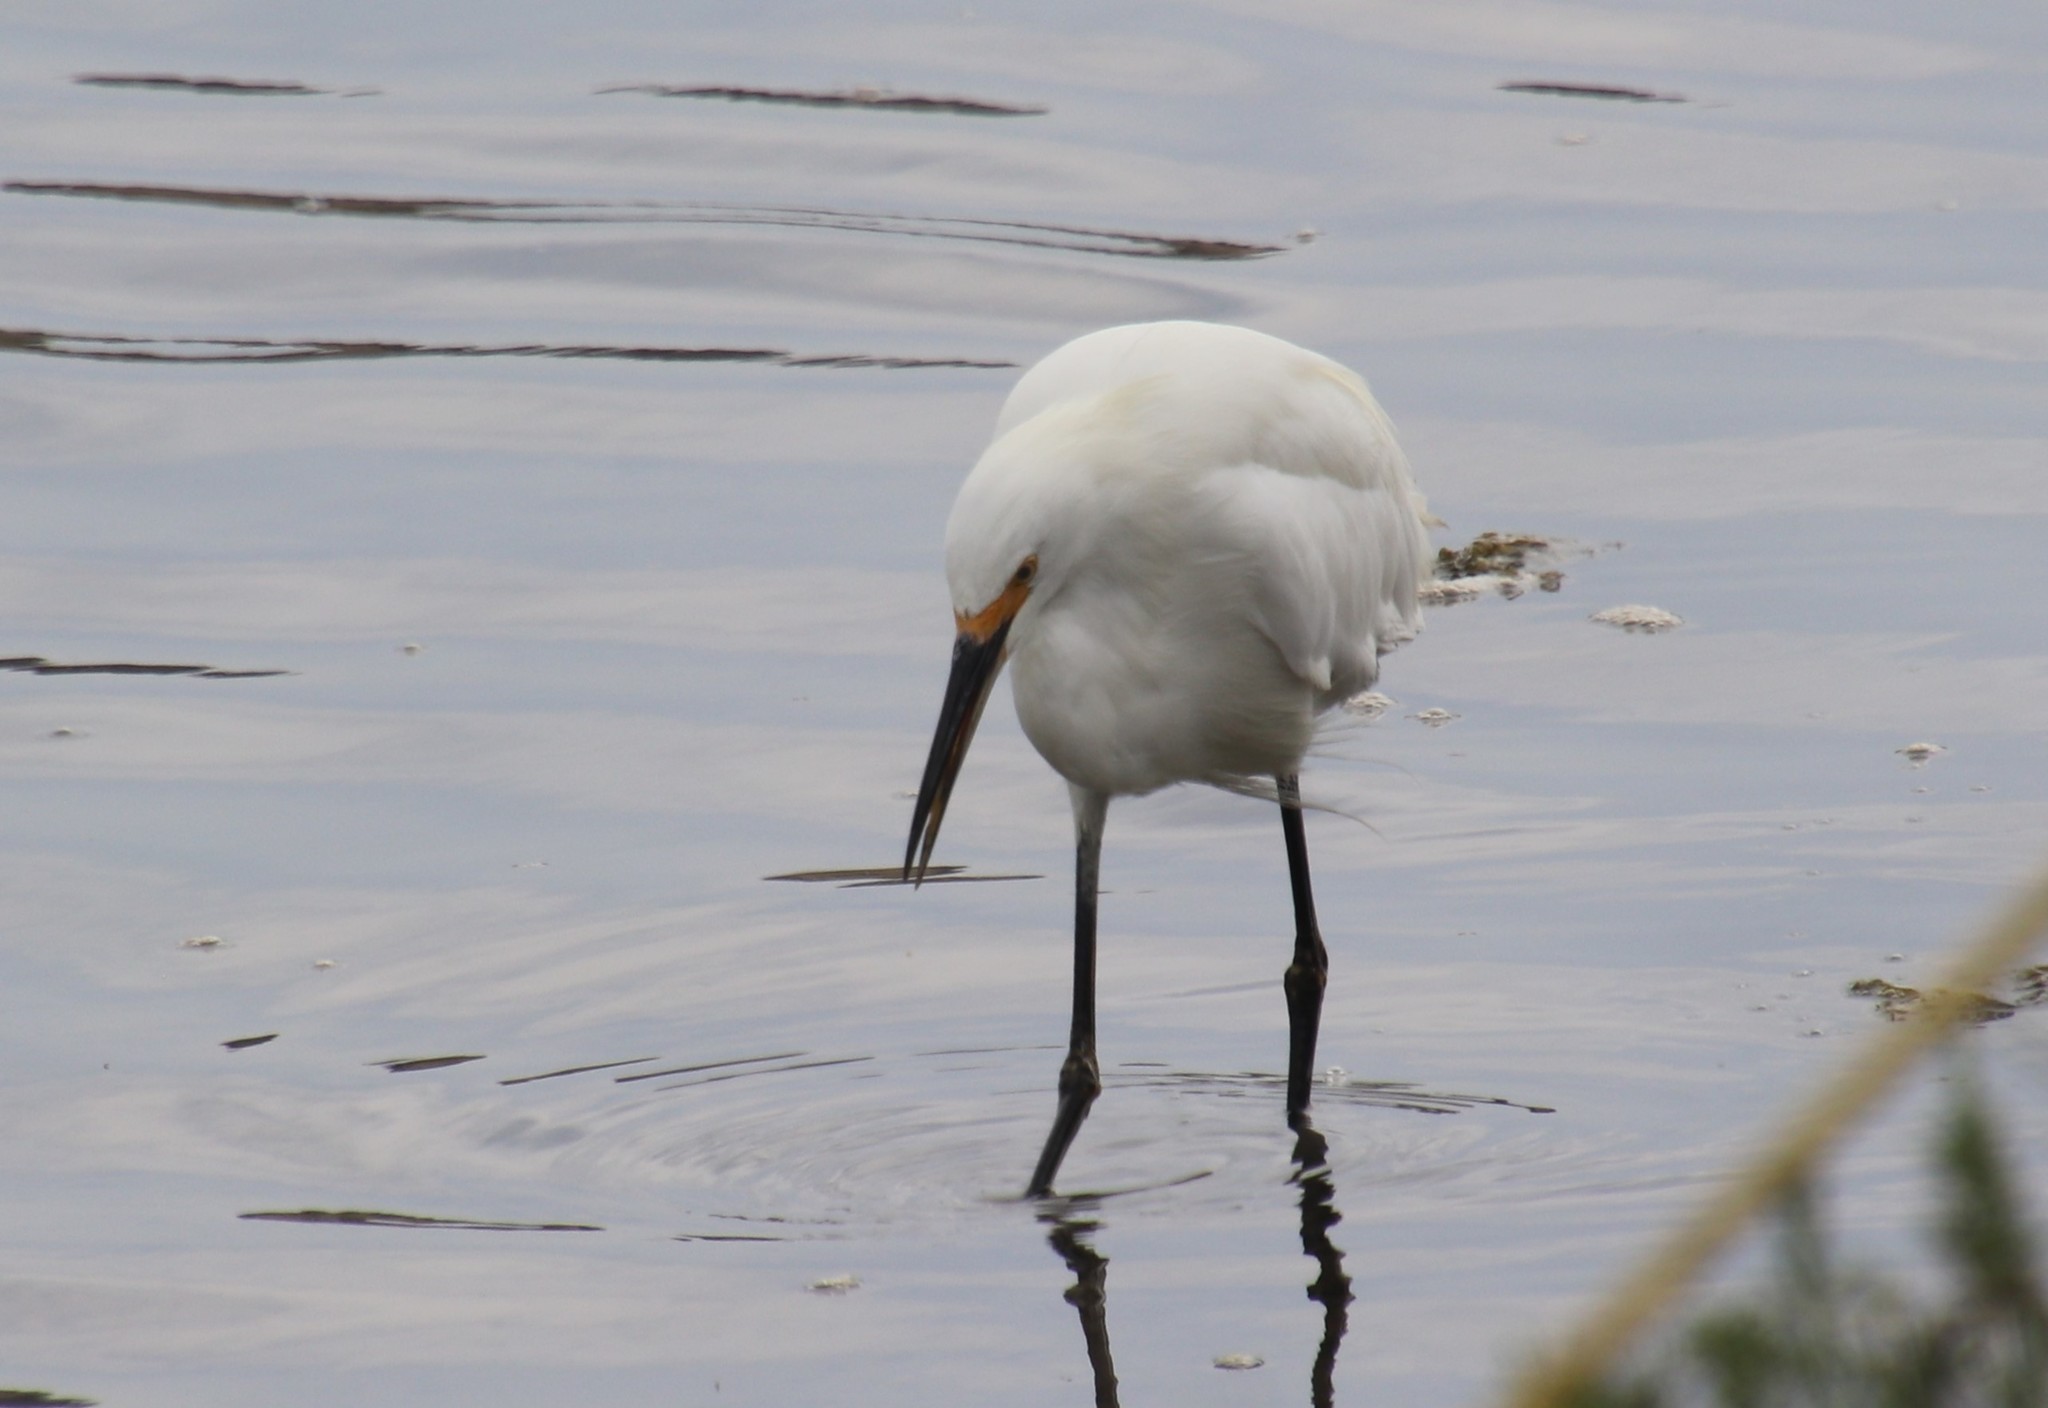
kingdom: Animalia
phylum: Chordata
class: Aves
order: Pelecaniformes
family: Ardeidae
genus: Egretta
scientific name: Egretta thula
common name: Snowy egret
